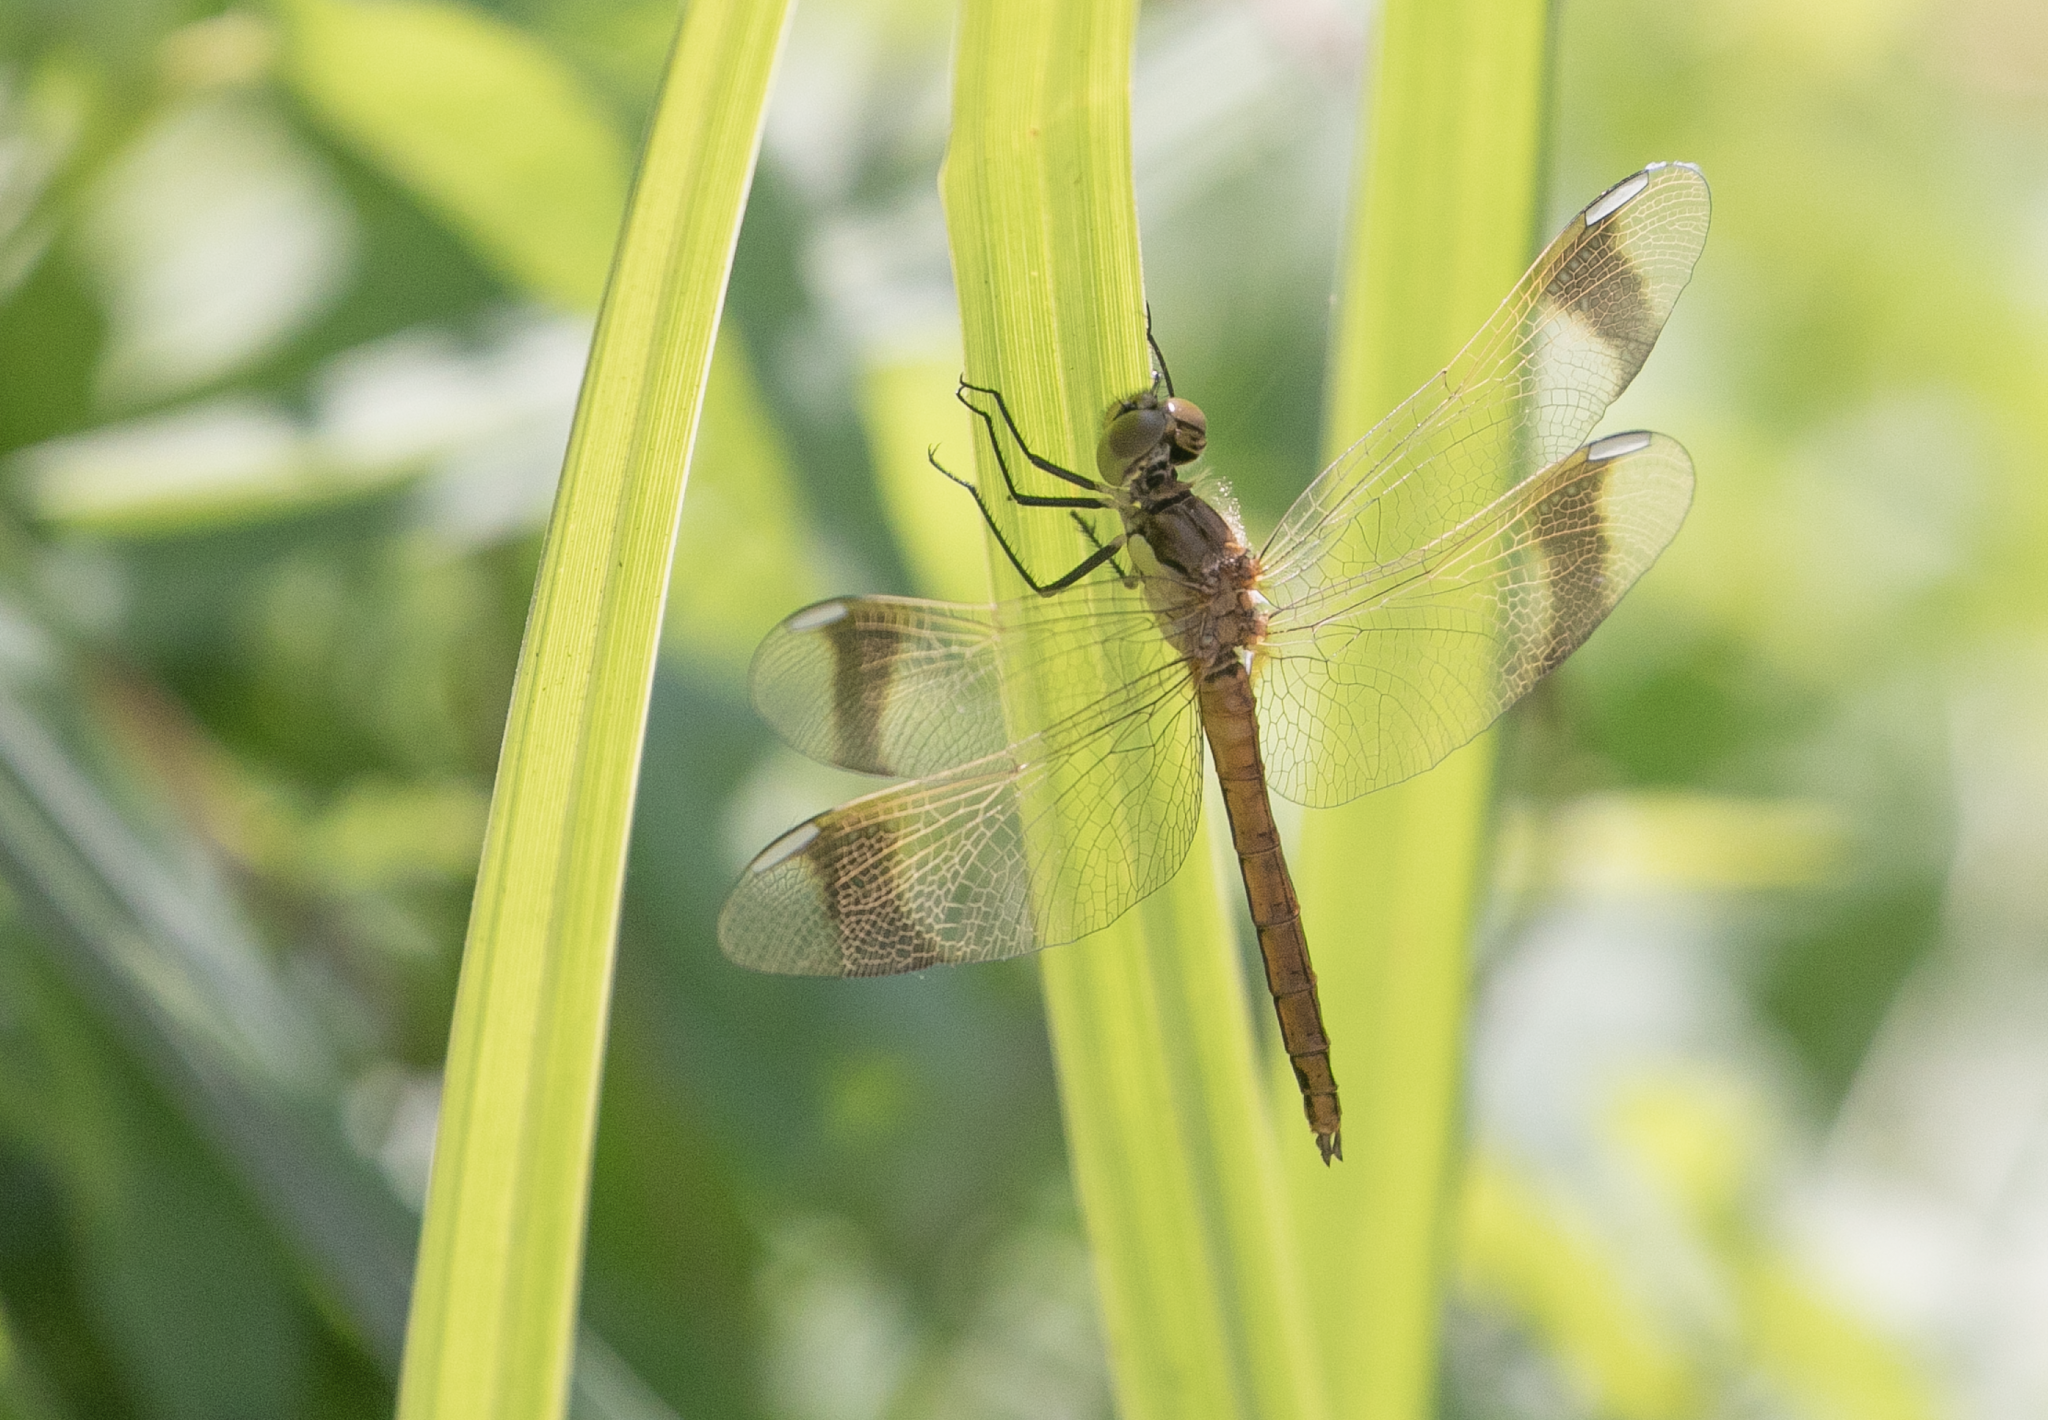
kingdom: Animalia
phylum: Arthropoda
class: Insecta
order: Odonata
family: Libellulidae
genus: Sympetrum
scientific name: Sympetrum pedemontanum
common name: Banded darter
